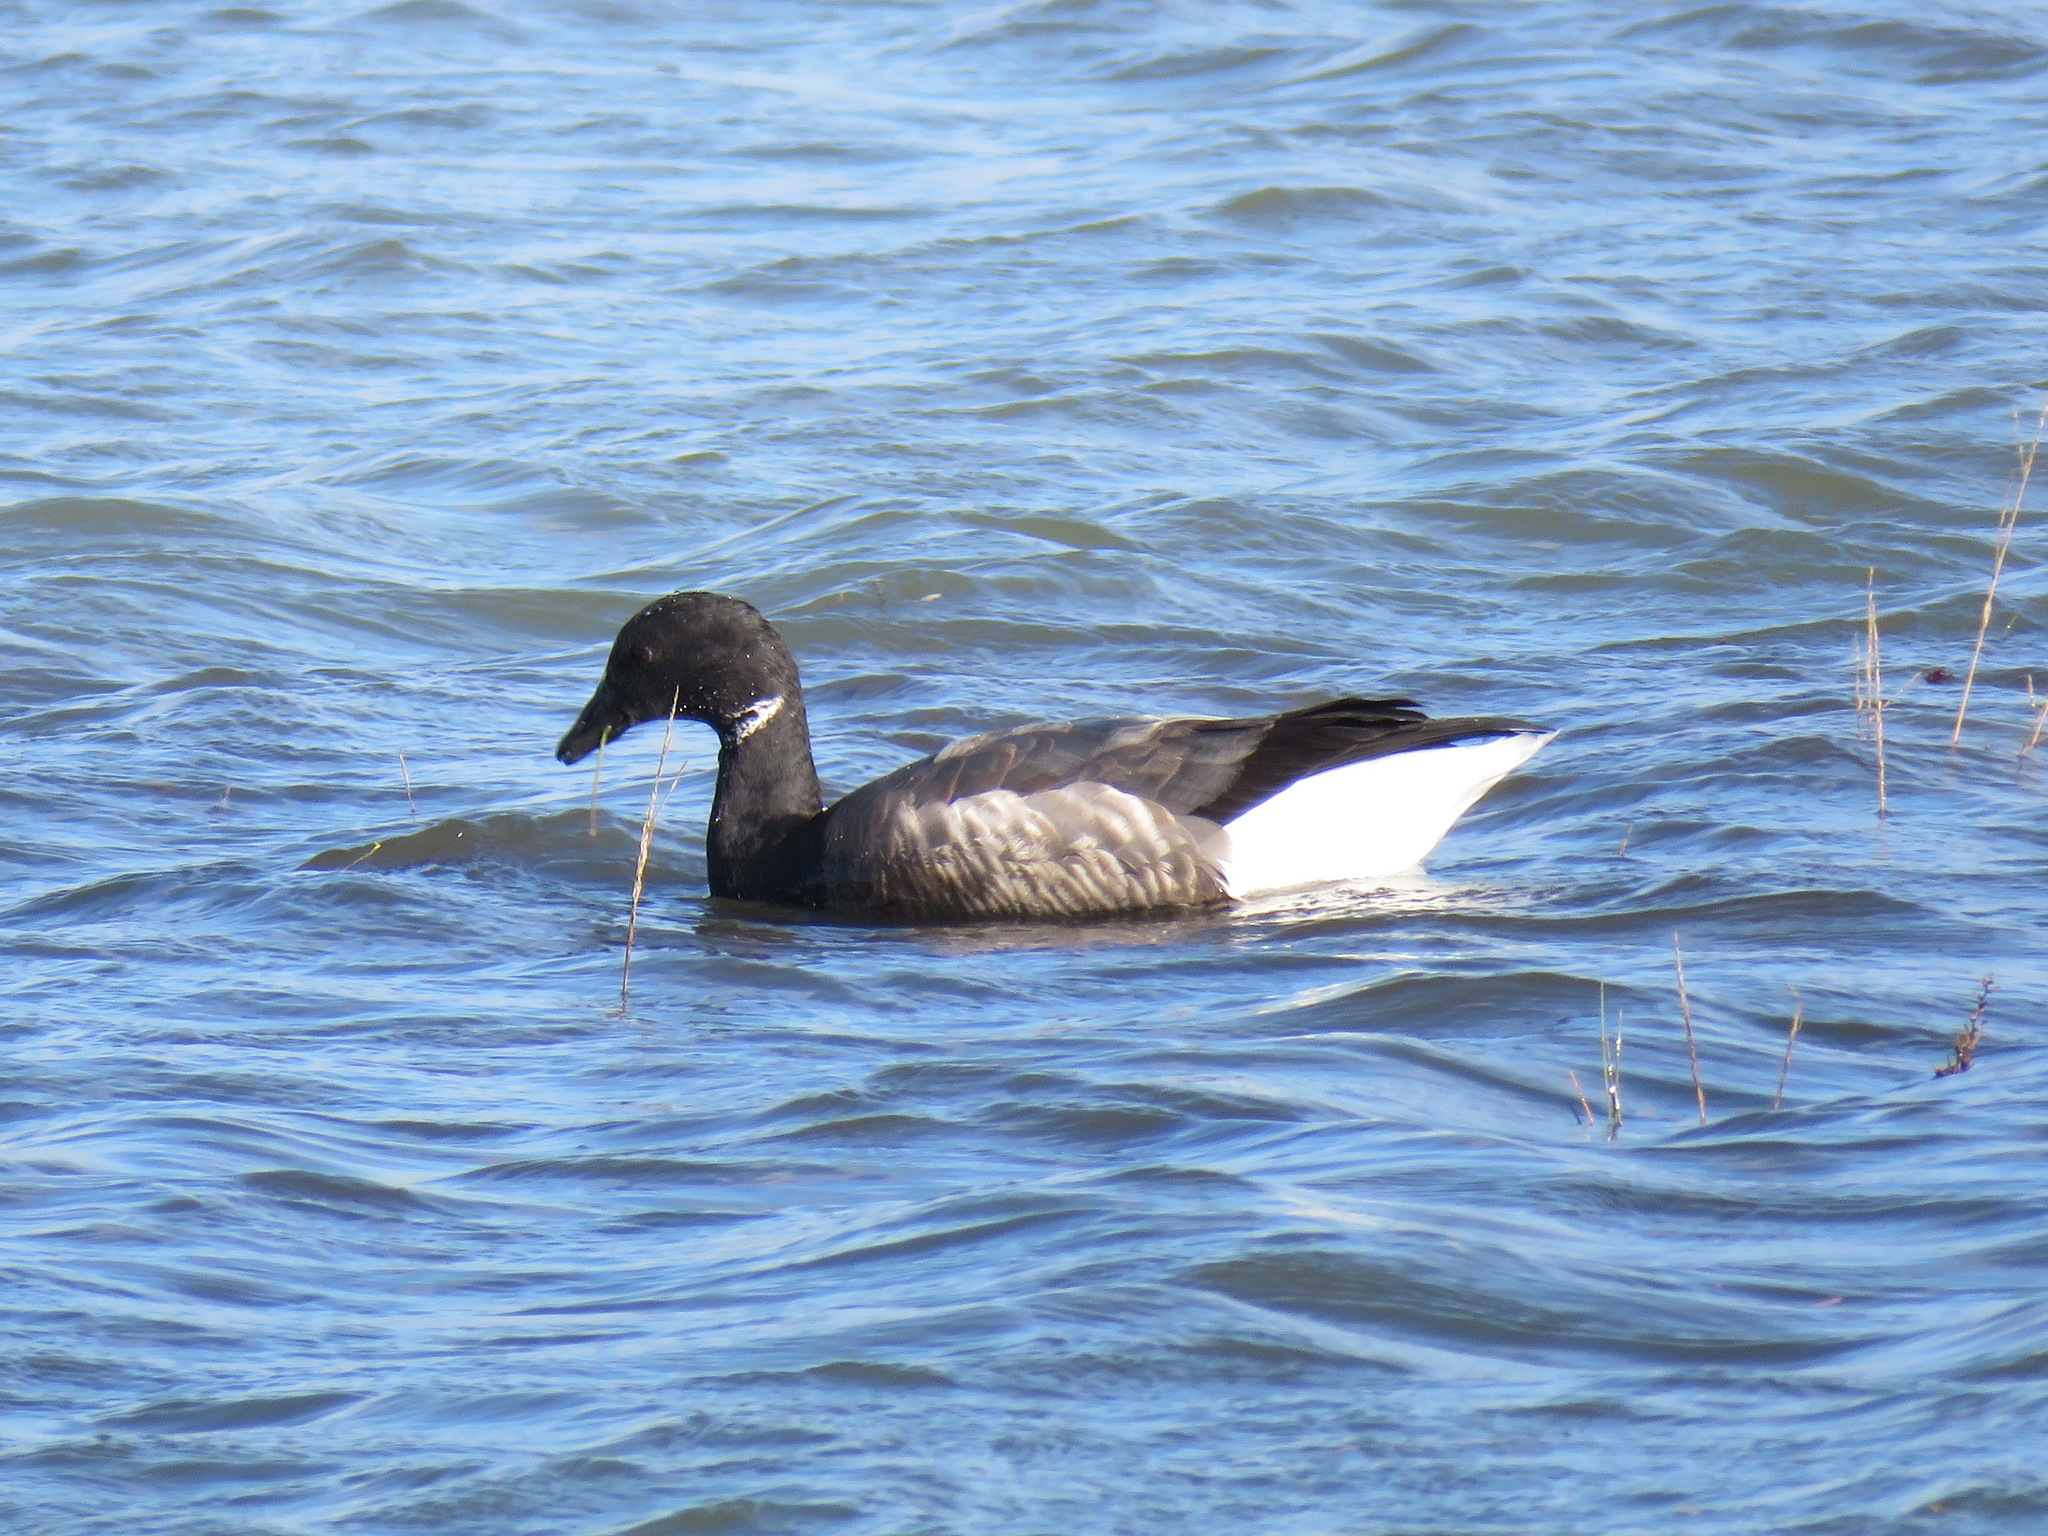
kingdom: Animalia
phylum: Chordata
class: Aves
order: Anseriformes
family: Anatidae
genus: Branta
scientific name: Branta bernicla
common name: Brant goose
